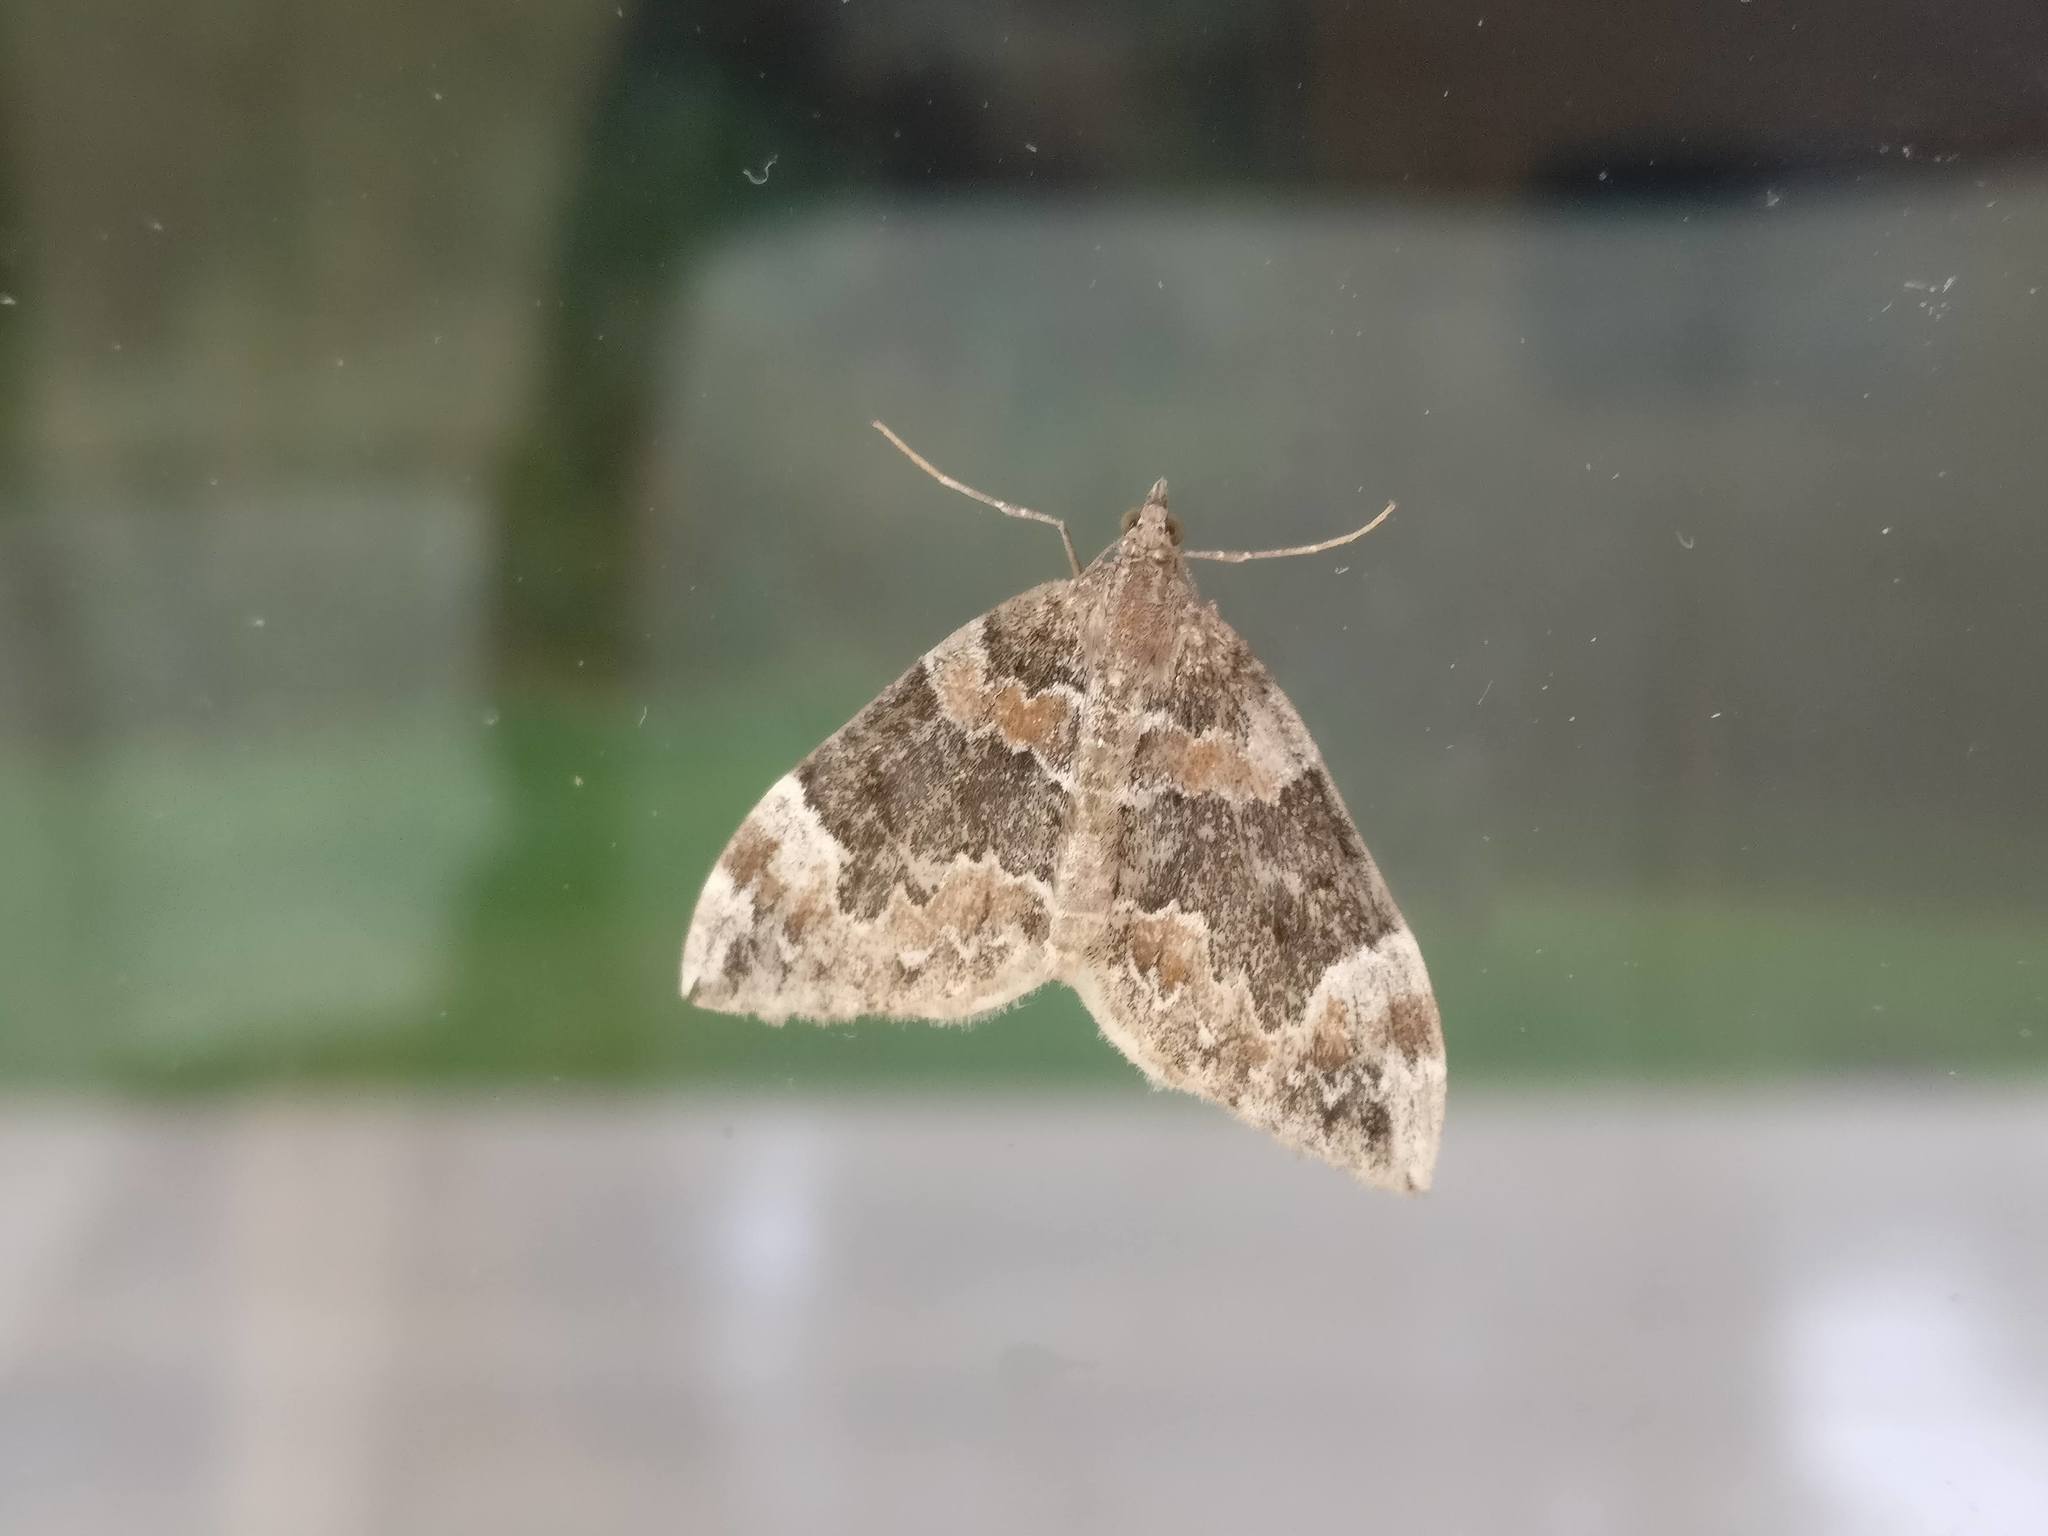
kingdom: Animalia
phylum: Arthropoda
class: Insecta
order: Lepidoptera
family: Geometridae
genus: Dysstroma
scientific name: Dysstroma citrata
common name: Dark marbled carpet
